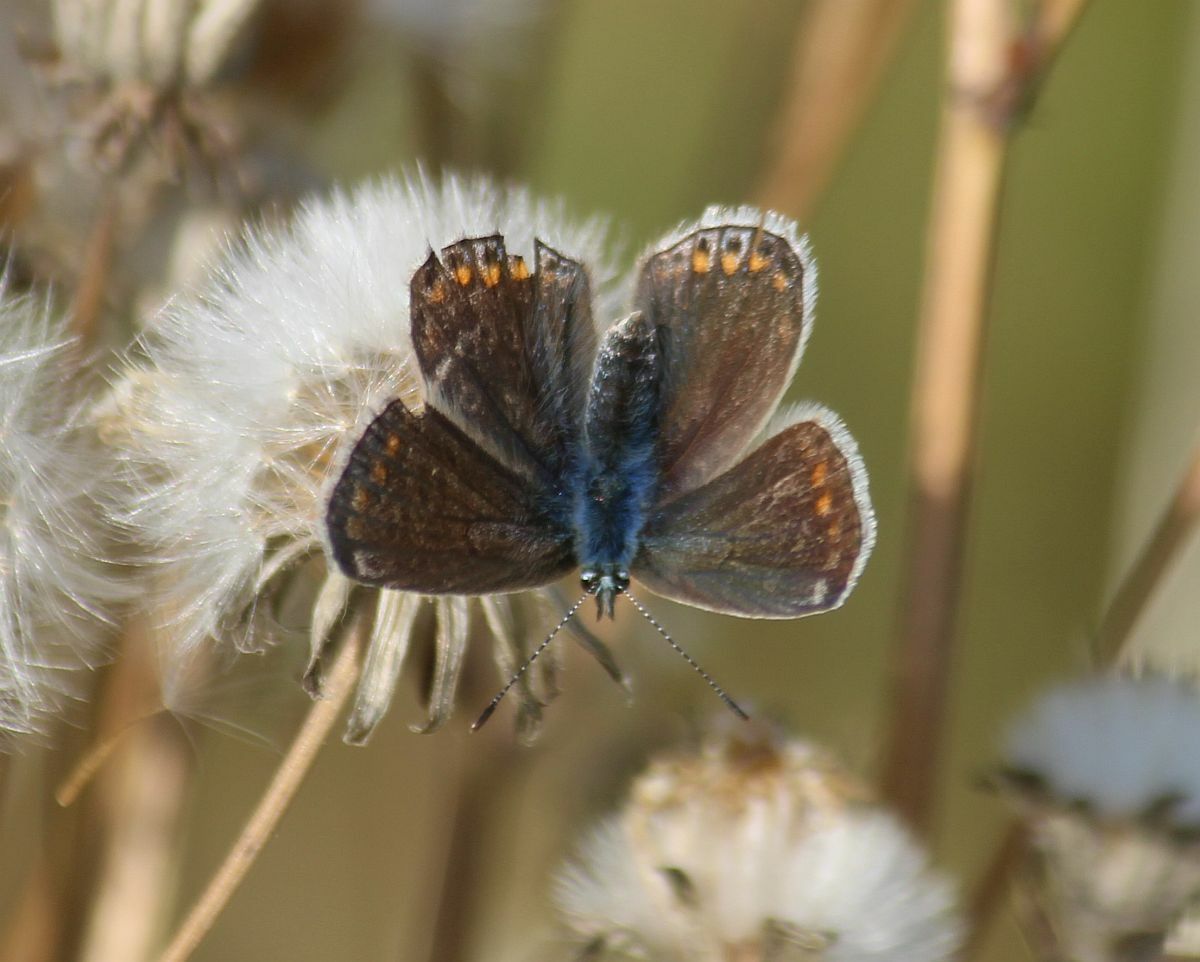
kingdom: Animalia
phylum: Arthropoda
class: Insecta
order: Lepidoptera
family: Lycaenidae
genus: Polyommatus
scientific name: Polyommatus icarus
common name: Common blue
